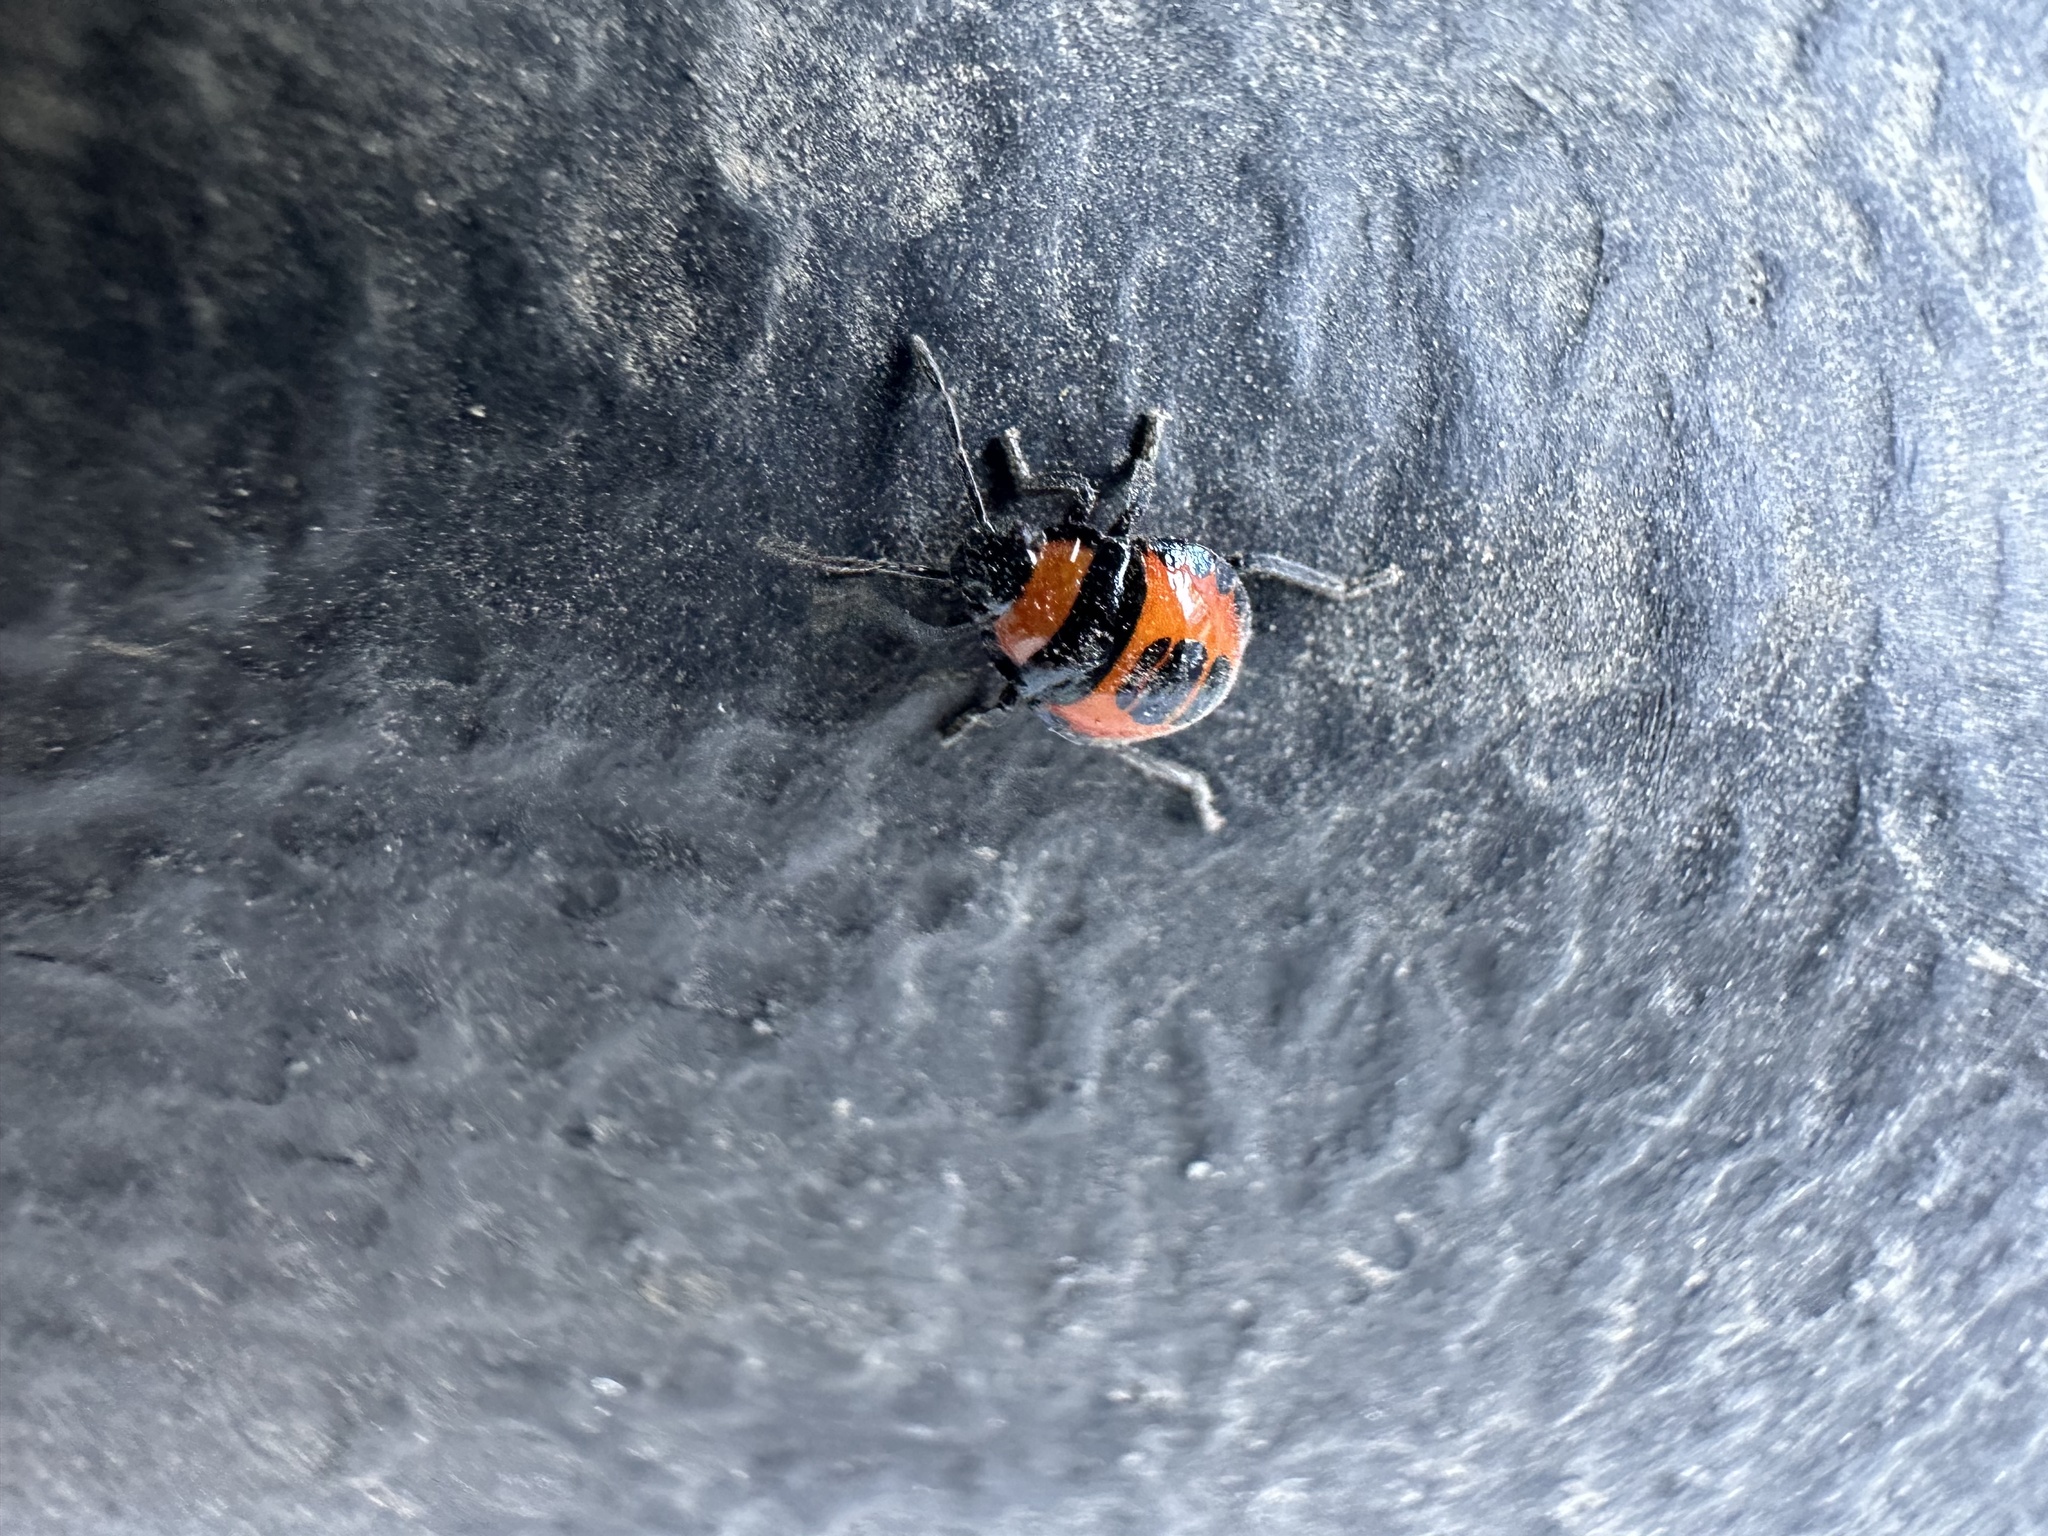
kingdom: Animalia
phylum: Arthropoda
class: Insecta
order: Hemiptera
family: Pentatomidae
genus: Brontocoris
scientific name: Brontocoris
